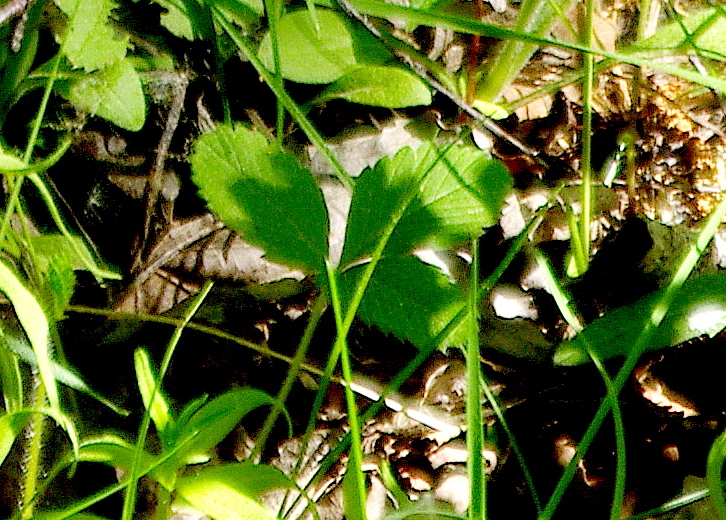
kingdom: Plantae
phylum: Tracheophyta
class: Magnoliopsida
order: Rosales
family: Rosaceae
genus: Fragaria
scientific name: Fragaria vesca
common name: Wild strawberry
